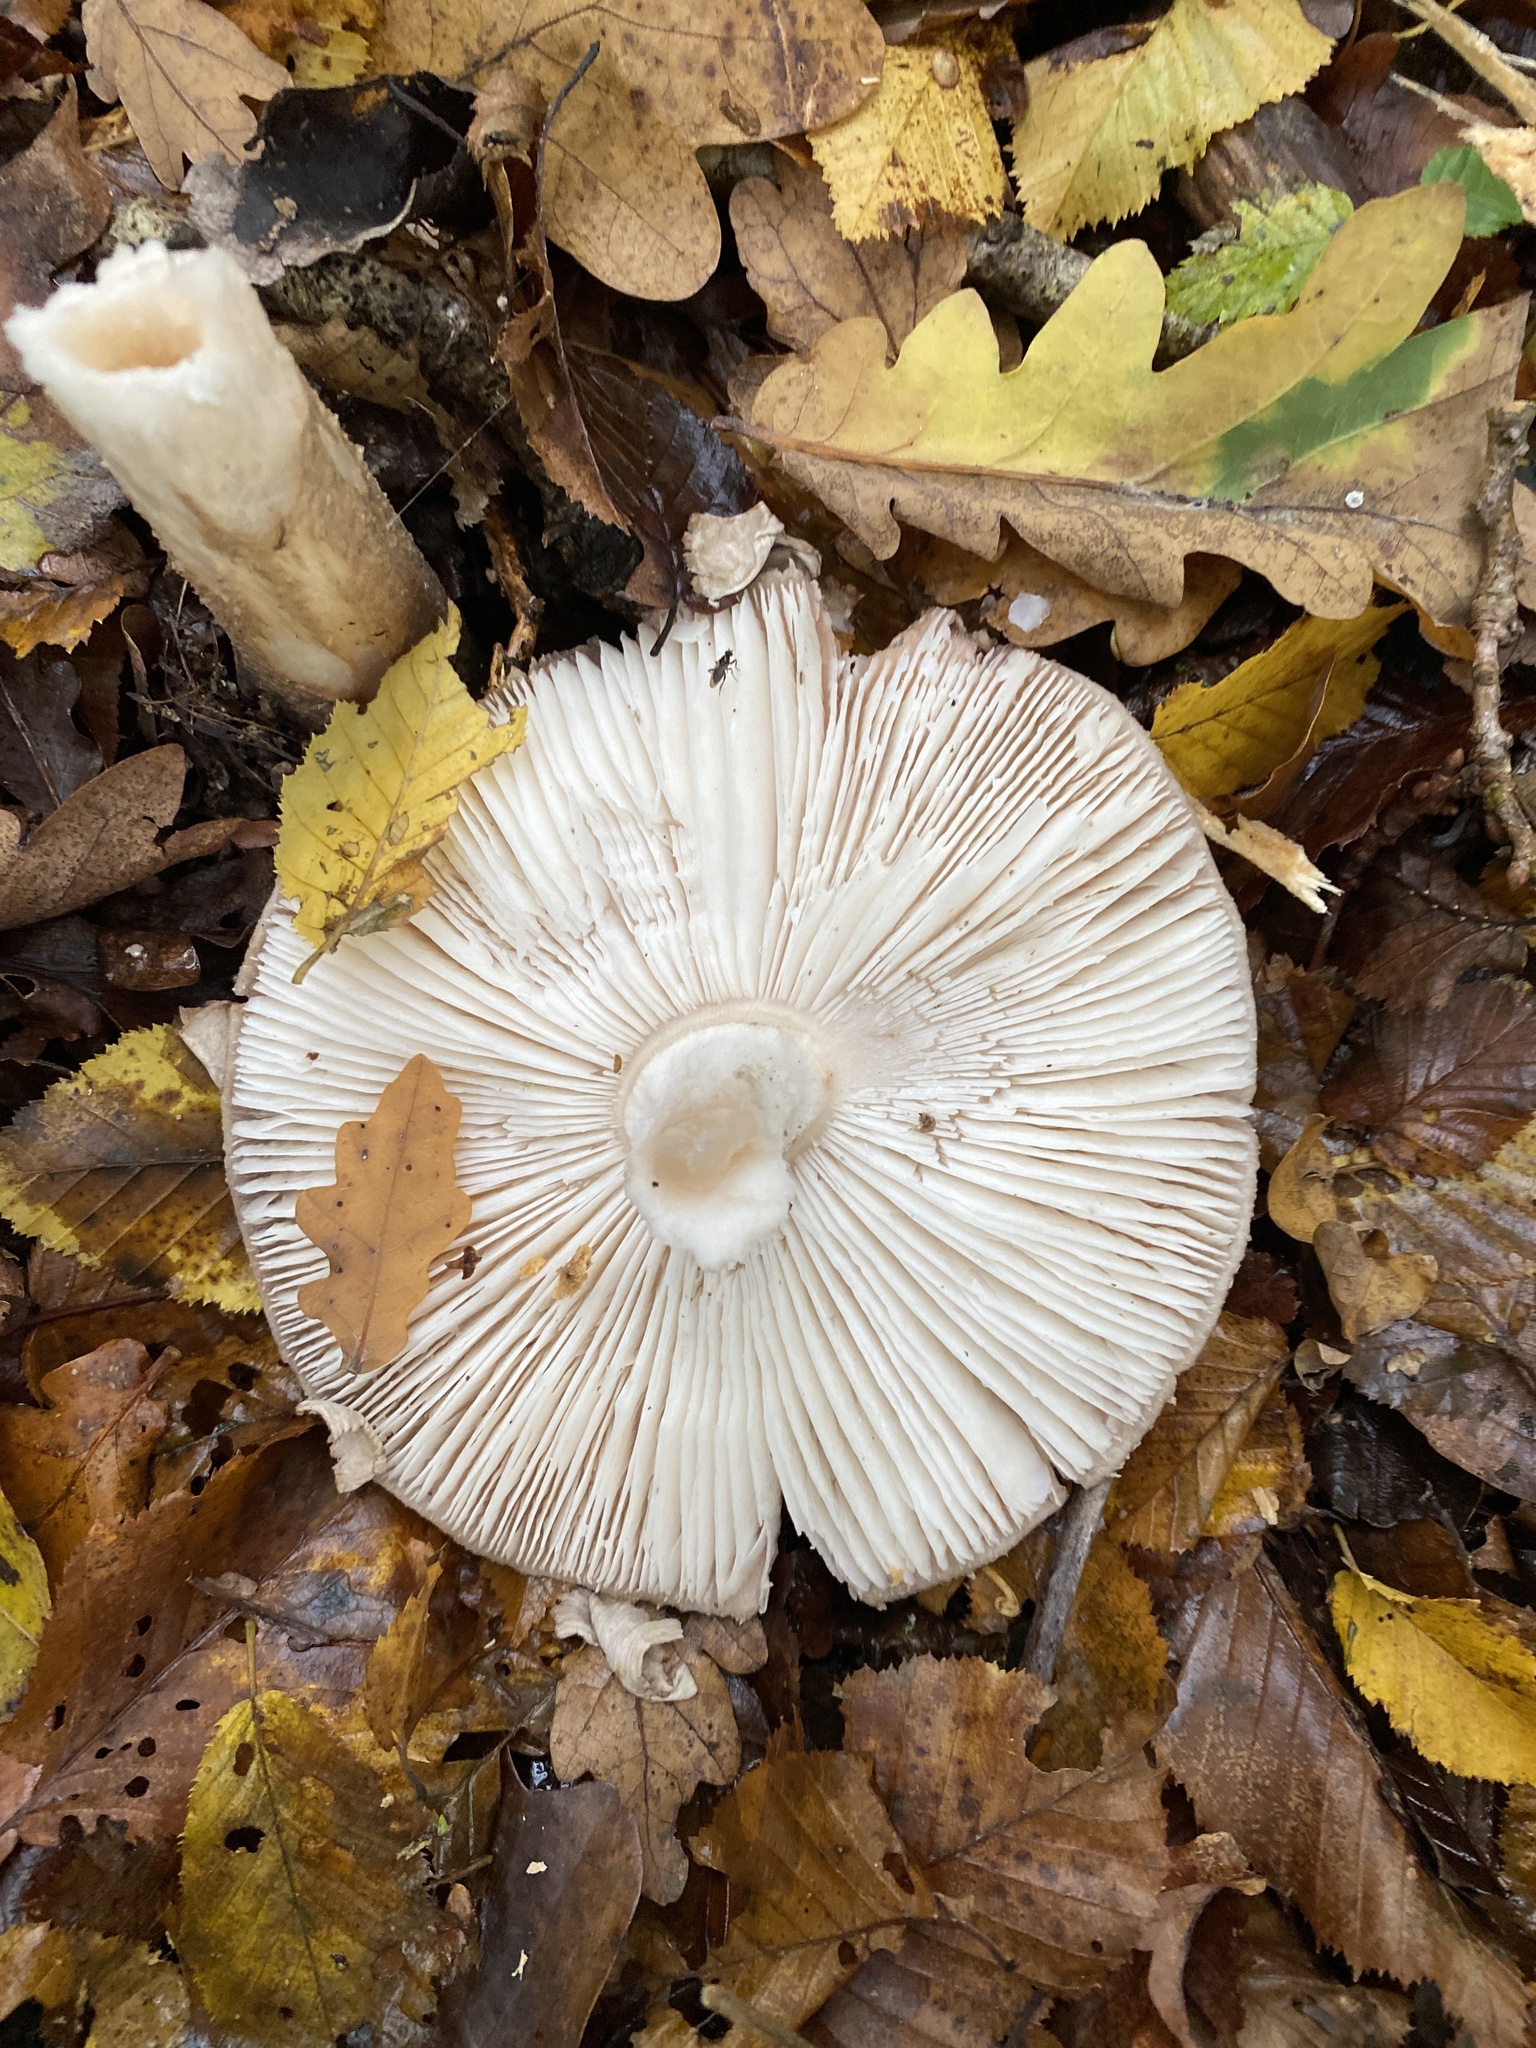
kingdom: Fungi
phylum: Basidiomycota
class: Agaricomycetes
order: Agaricales
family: Amanitaceae
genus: Amanita
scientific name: Amanita rubescens
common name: Blusher
